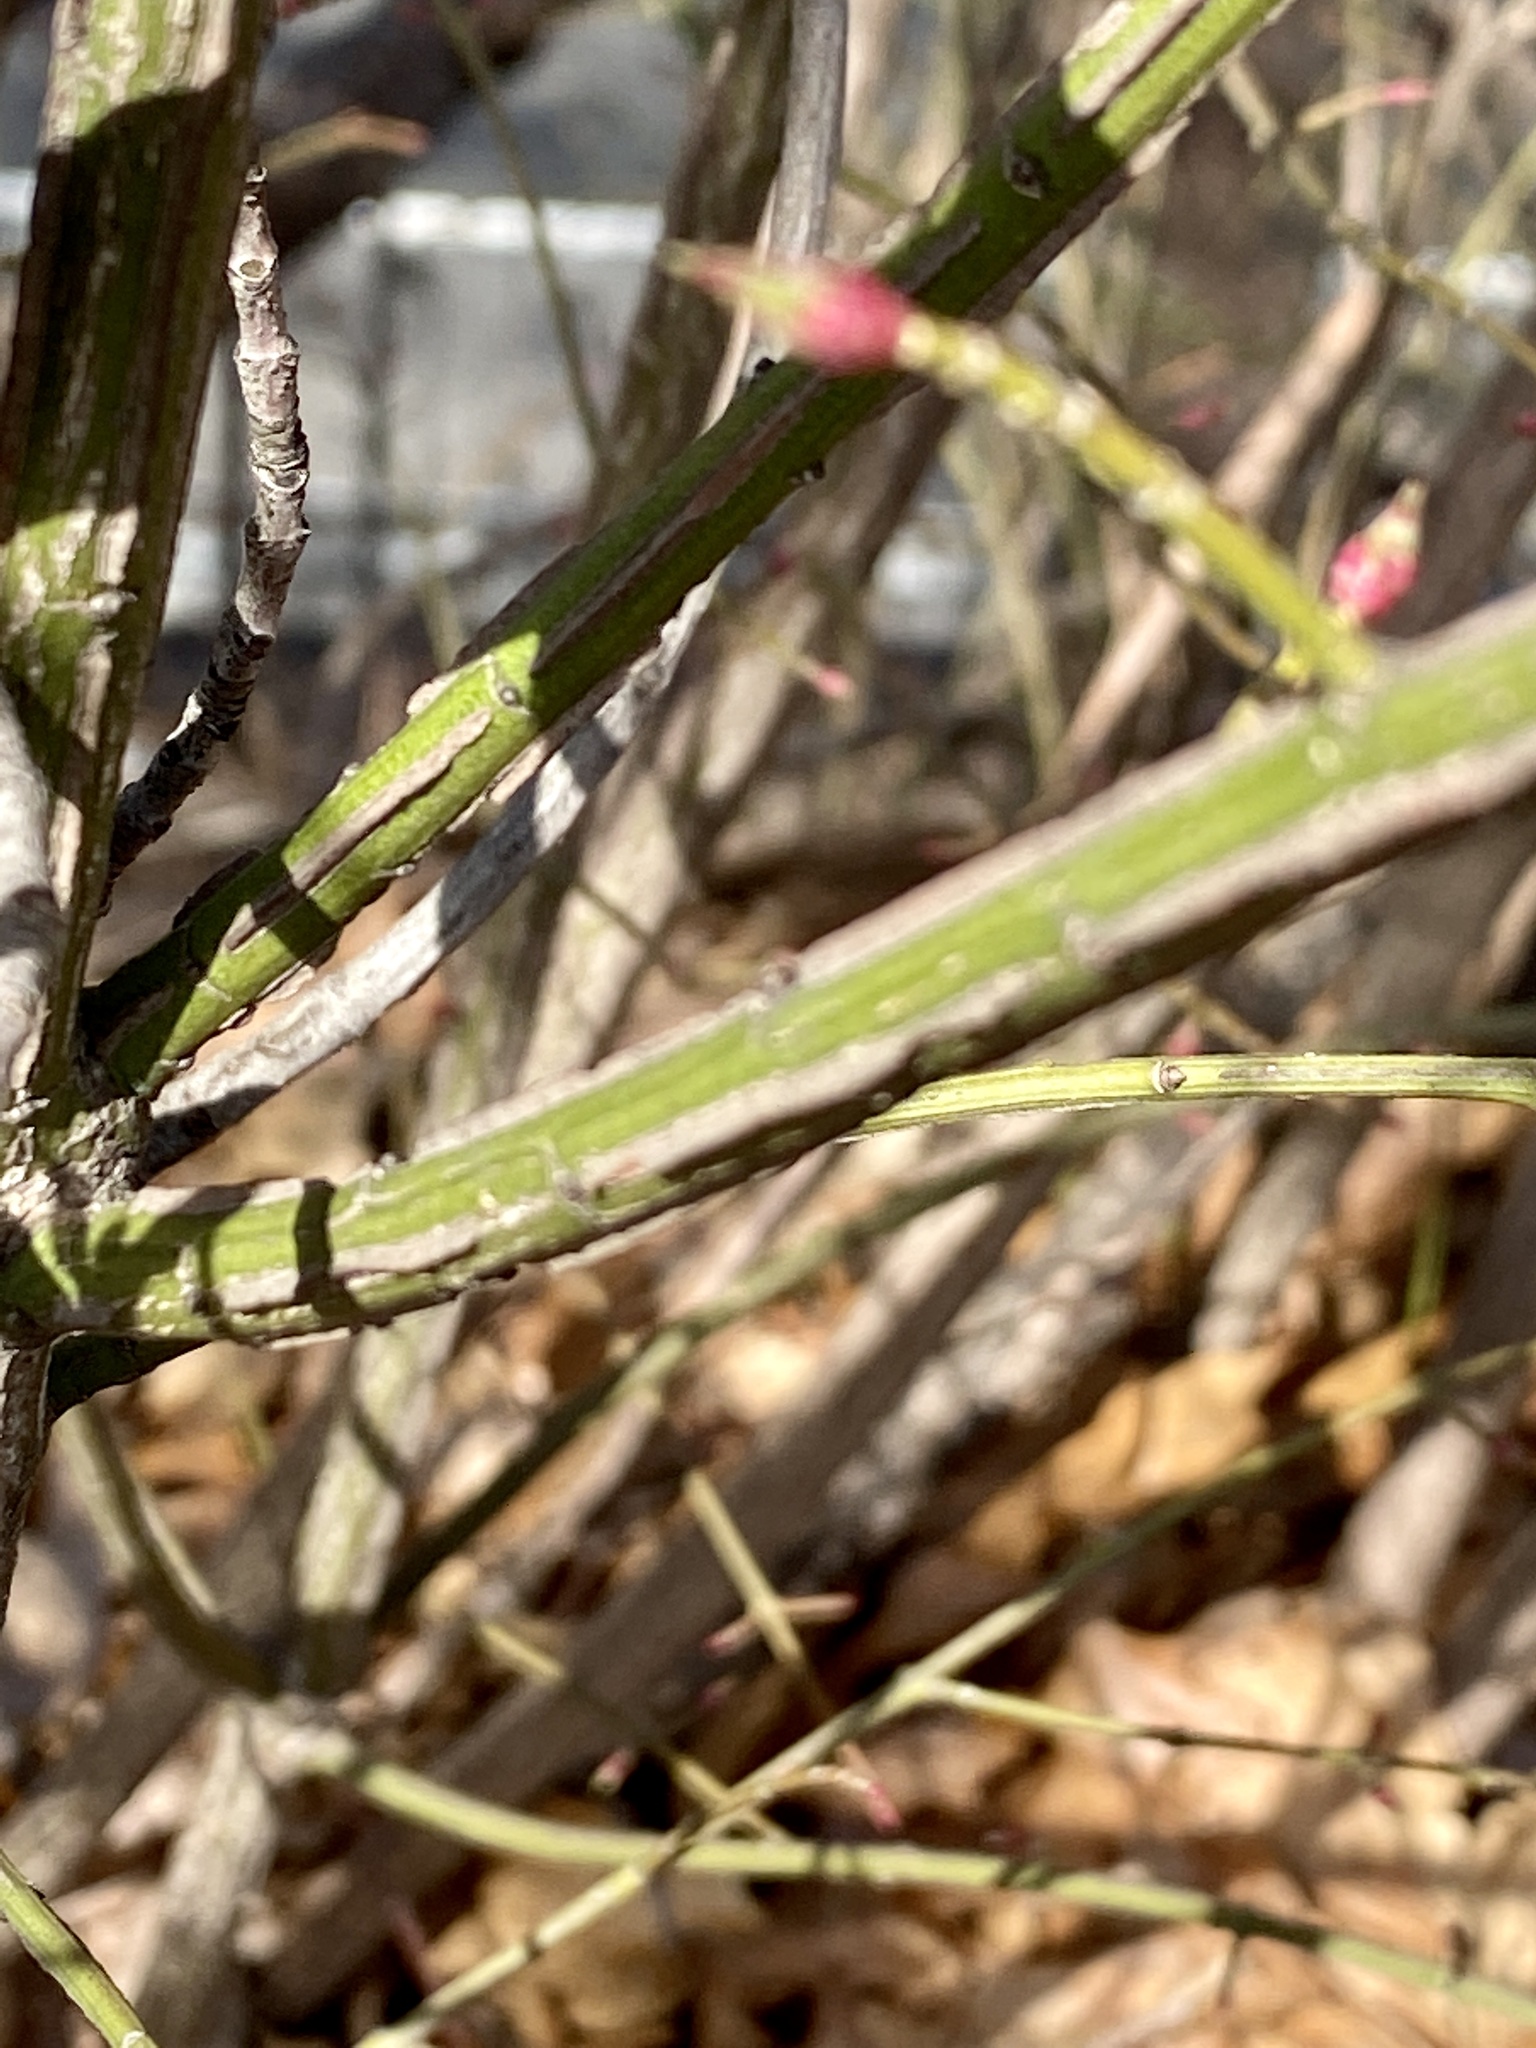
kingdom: Plantae
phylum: Tracheophyta
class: Magnoliopsida
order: Celastrales
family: Celastraceae
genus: Euonymus
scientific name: Euonymus alatus
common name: Winged euonymus
